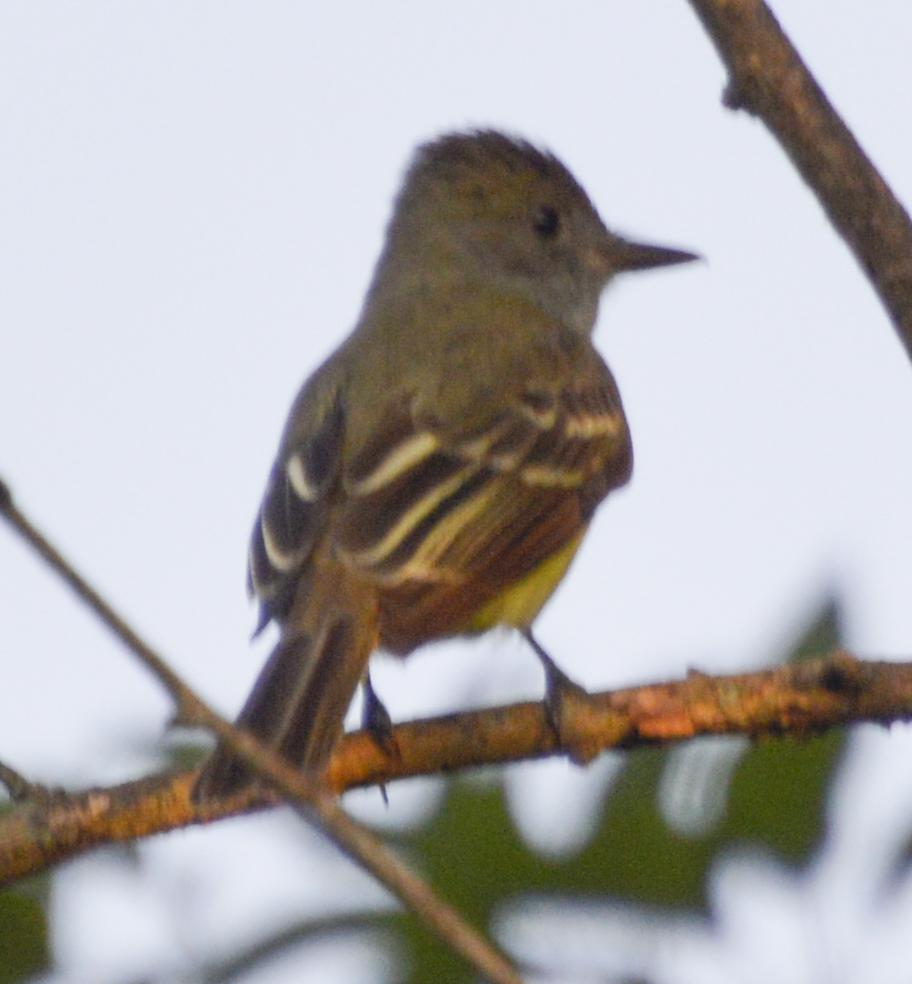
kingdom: Animalia
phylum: Chordata
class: Aves
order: Passeriformes
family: Tyrannidae
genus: Myiarchus
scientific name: Myiarchus crinitus
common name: Great crested flycatcher
